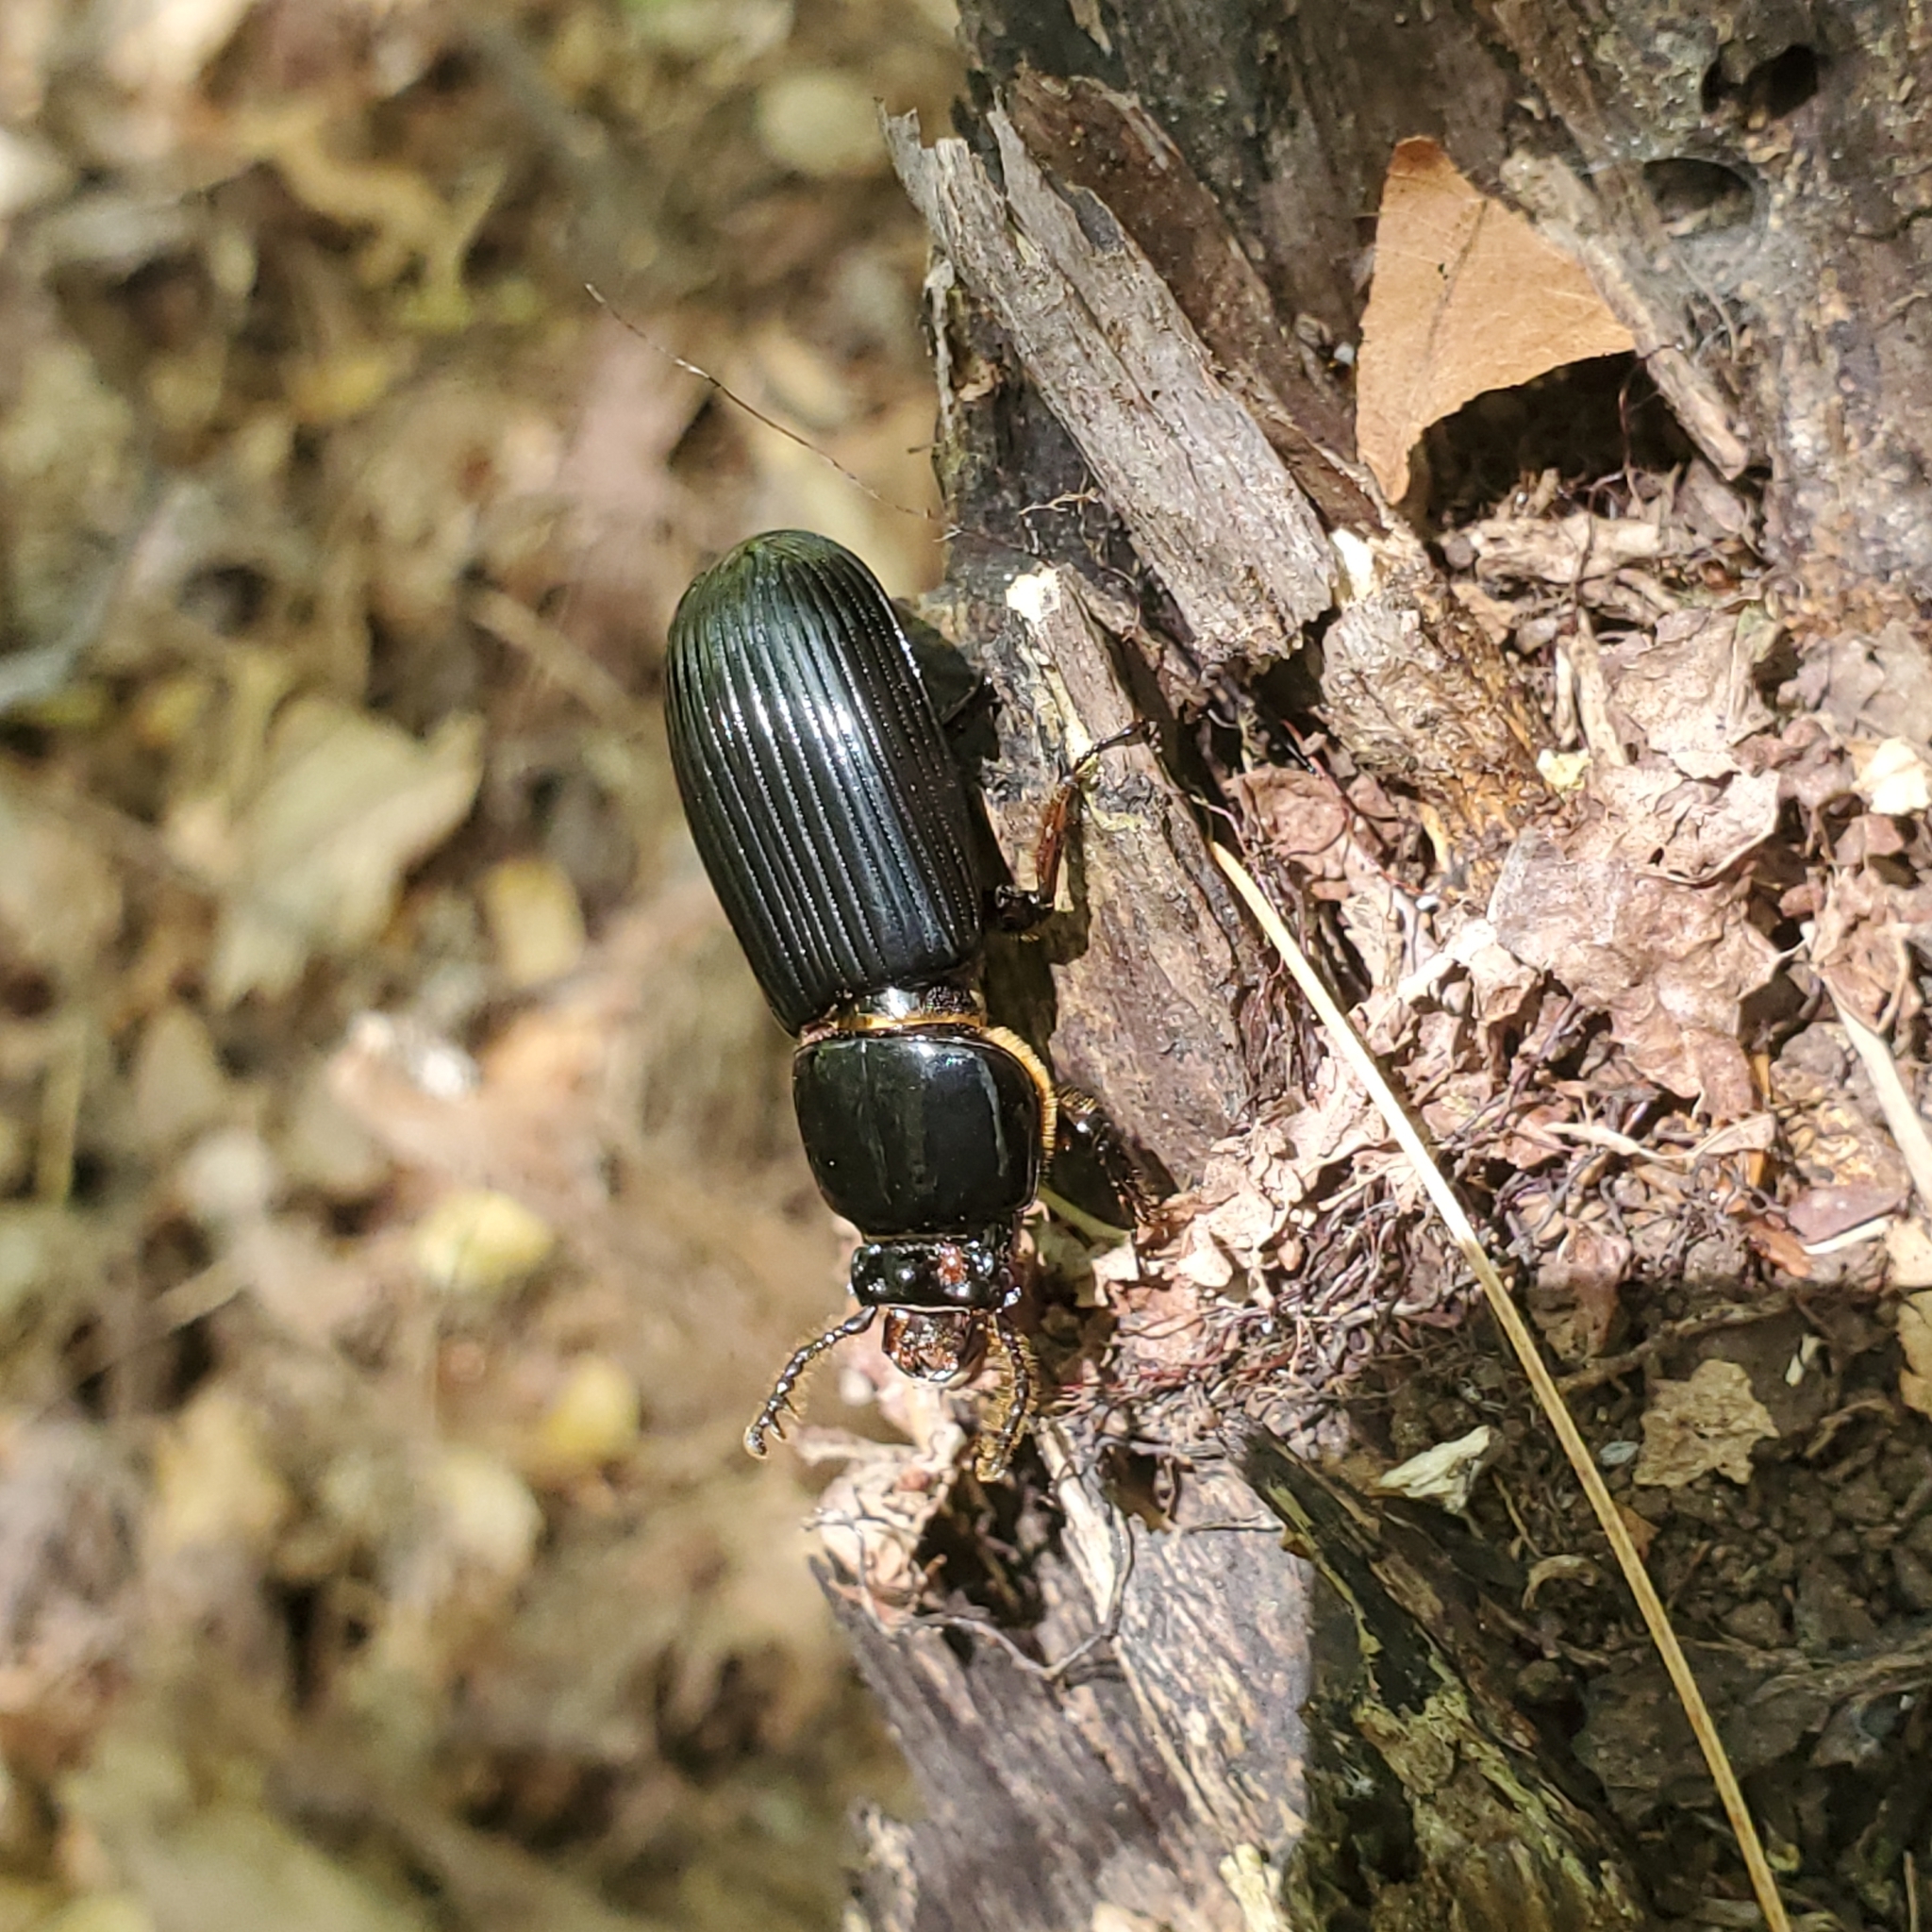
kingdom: Animalia
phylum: Arthropoda
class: Insecta
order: Coleoptera
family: Passalidae
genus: Odontotaenius
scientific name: Odontotaenius disjunctus
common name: Patent leather beetle
